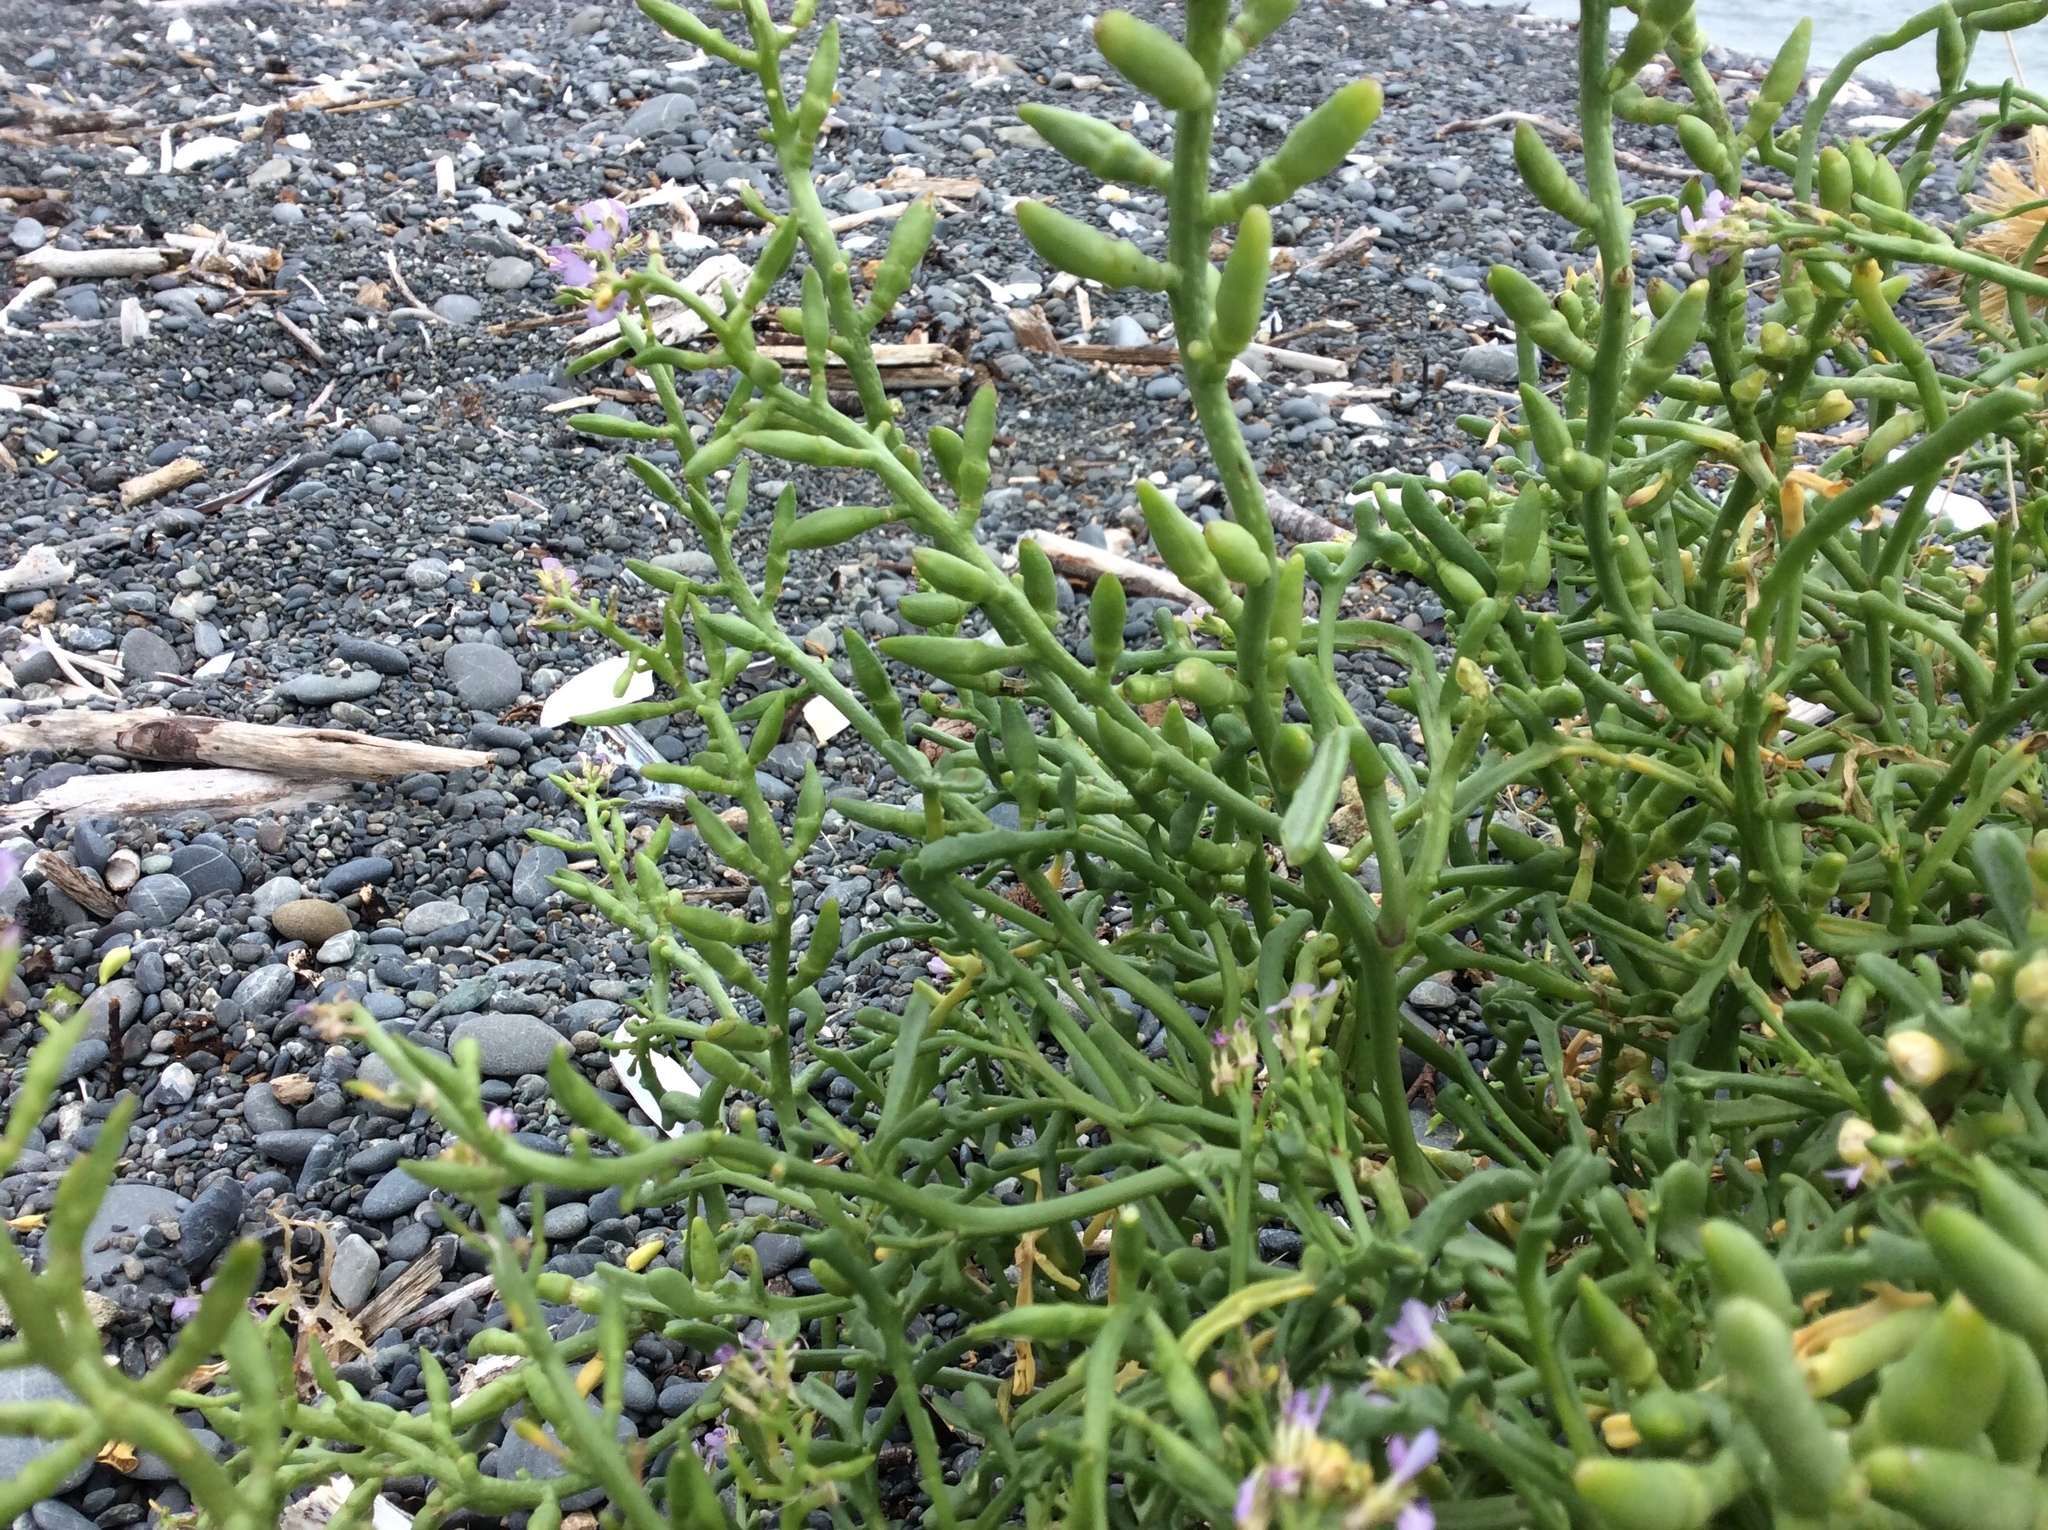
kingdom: Plantae
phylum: Tracheophyta
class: Magnoliopsida
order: Brassicales
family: Brassicaceae
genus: Cakile
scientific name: Cakile maritima
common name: Sea rocket
